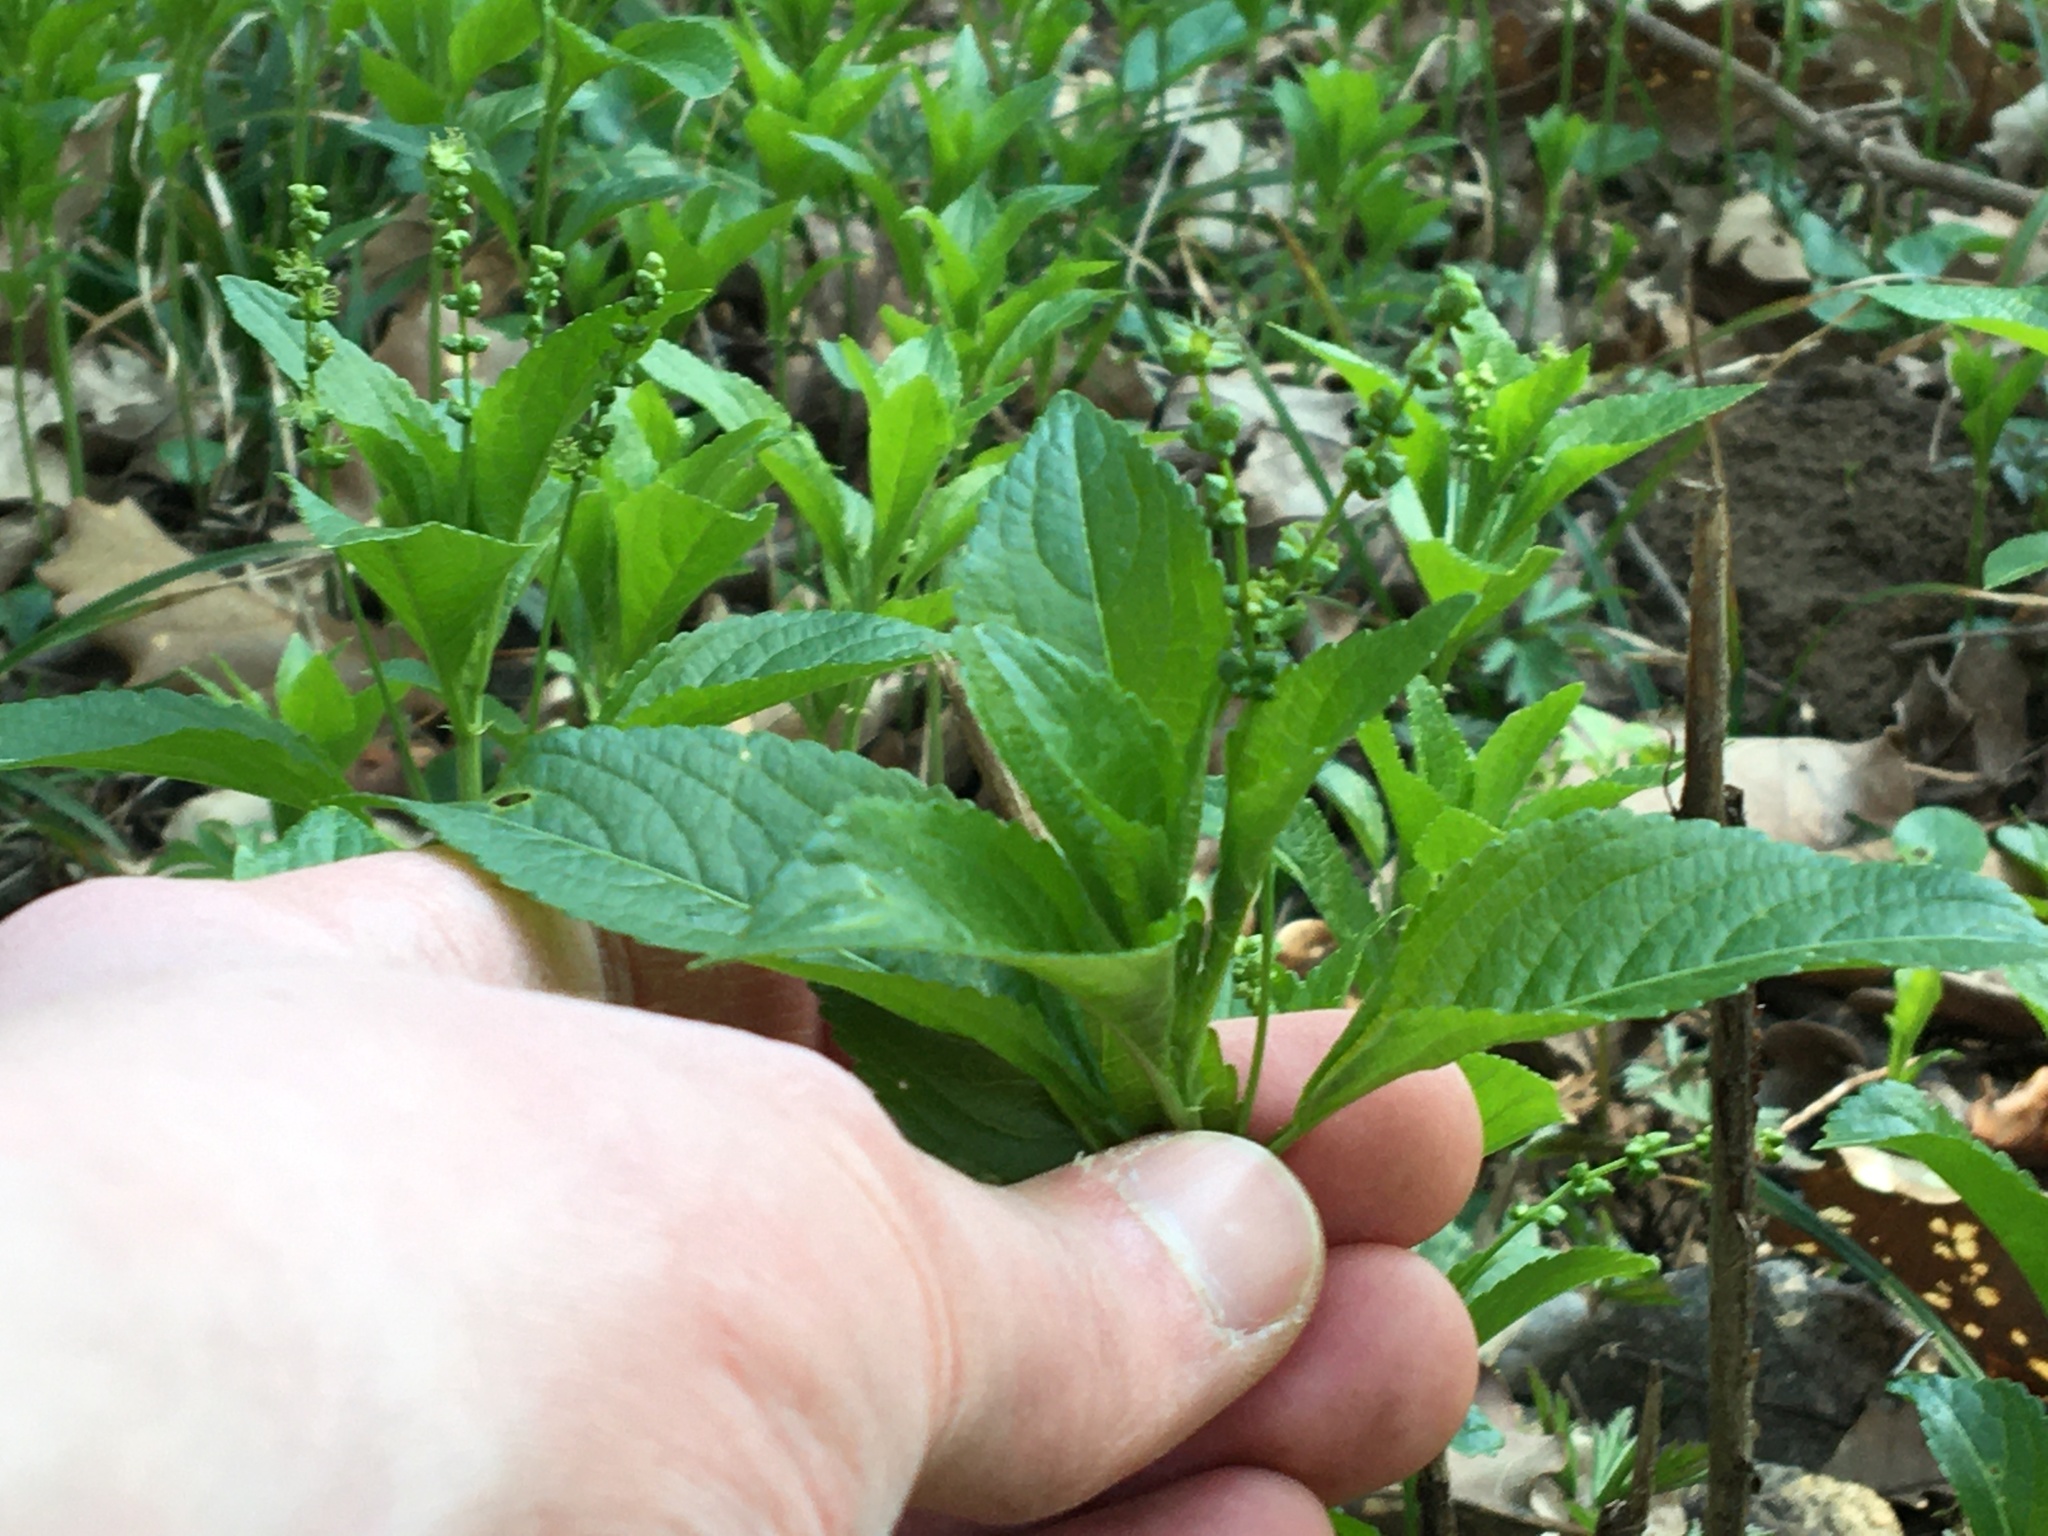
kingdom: Plantae
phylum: Tracheophyta
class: Magnoliopsida
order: Malpighiales
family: Euphorbiaceae
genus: Mercurialis
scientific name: Mercurialis perennis
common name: Dog mercury
